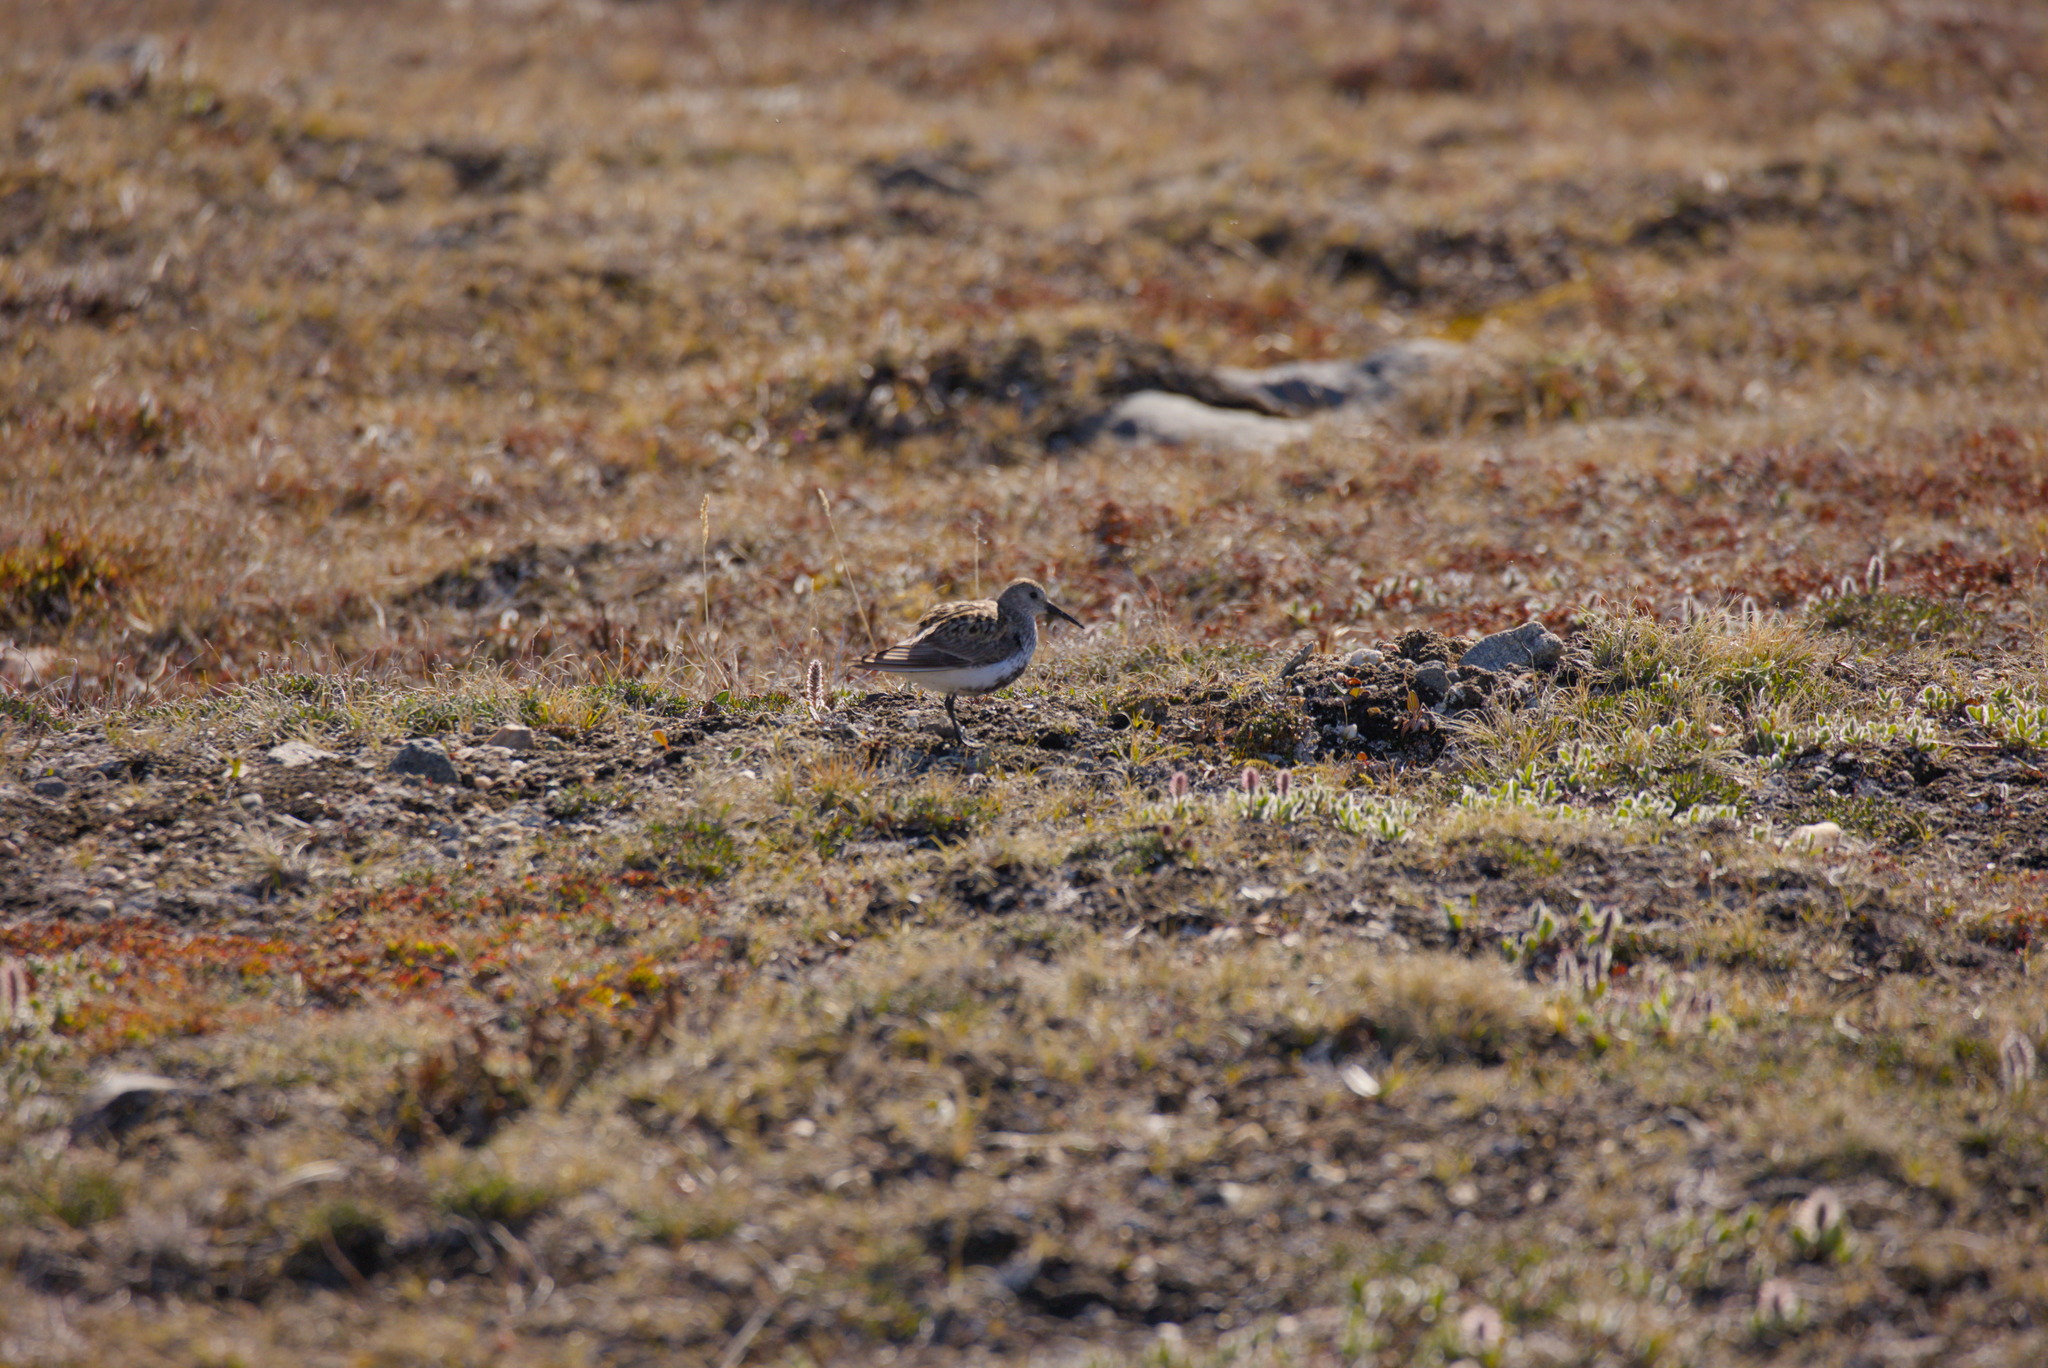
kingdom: Animalia
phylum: Chordata
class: Aves
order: Charadriiformes
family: Scolopacidae
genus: Calidris
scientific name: Calidris alpina
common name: Dunlin
